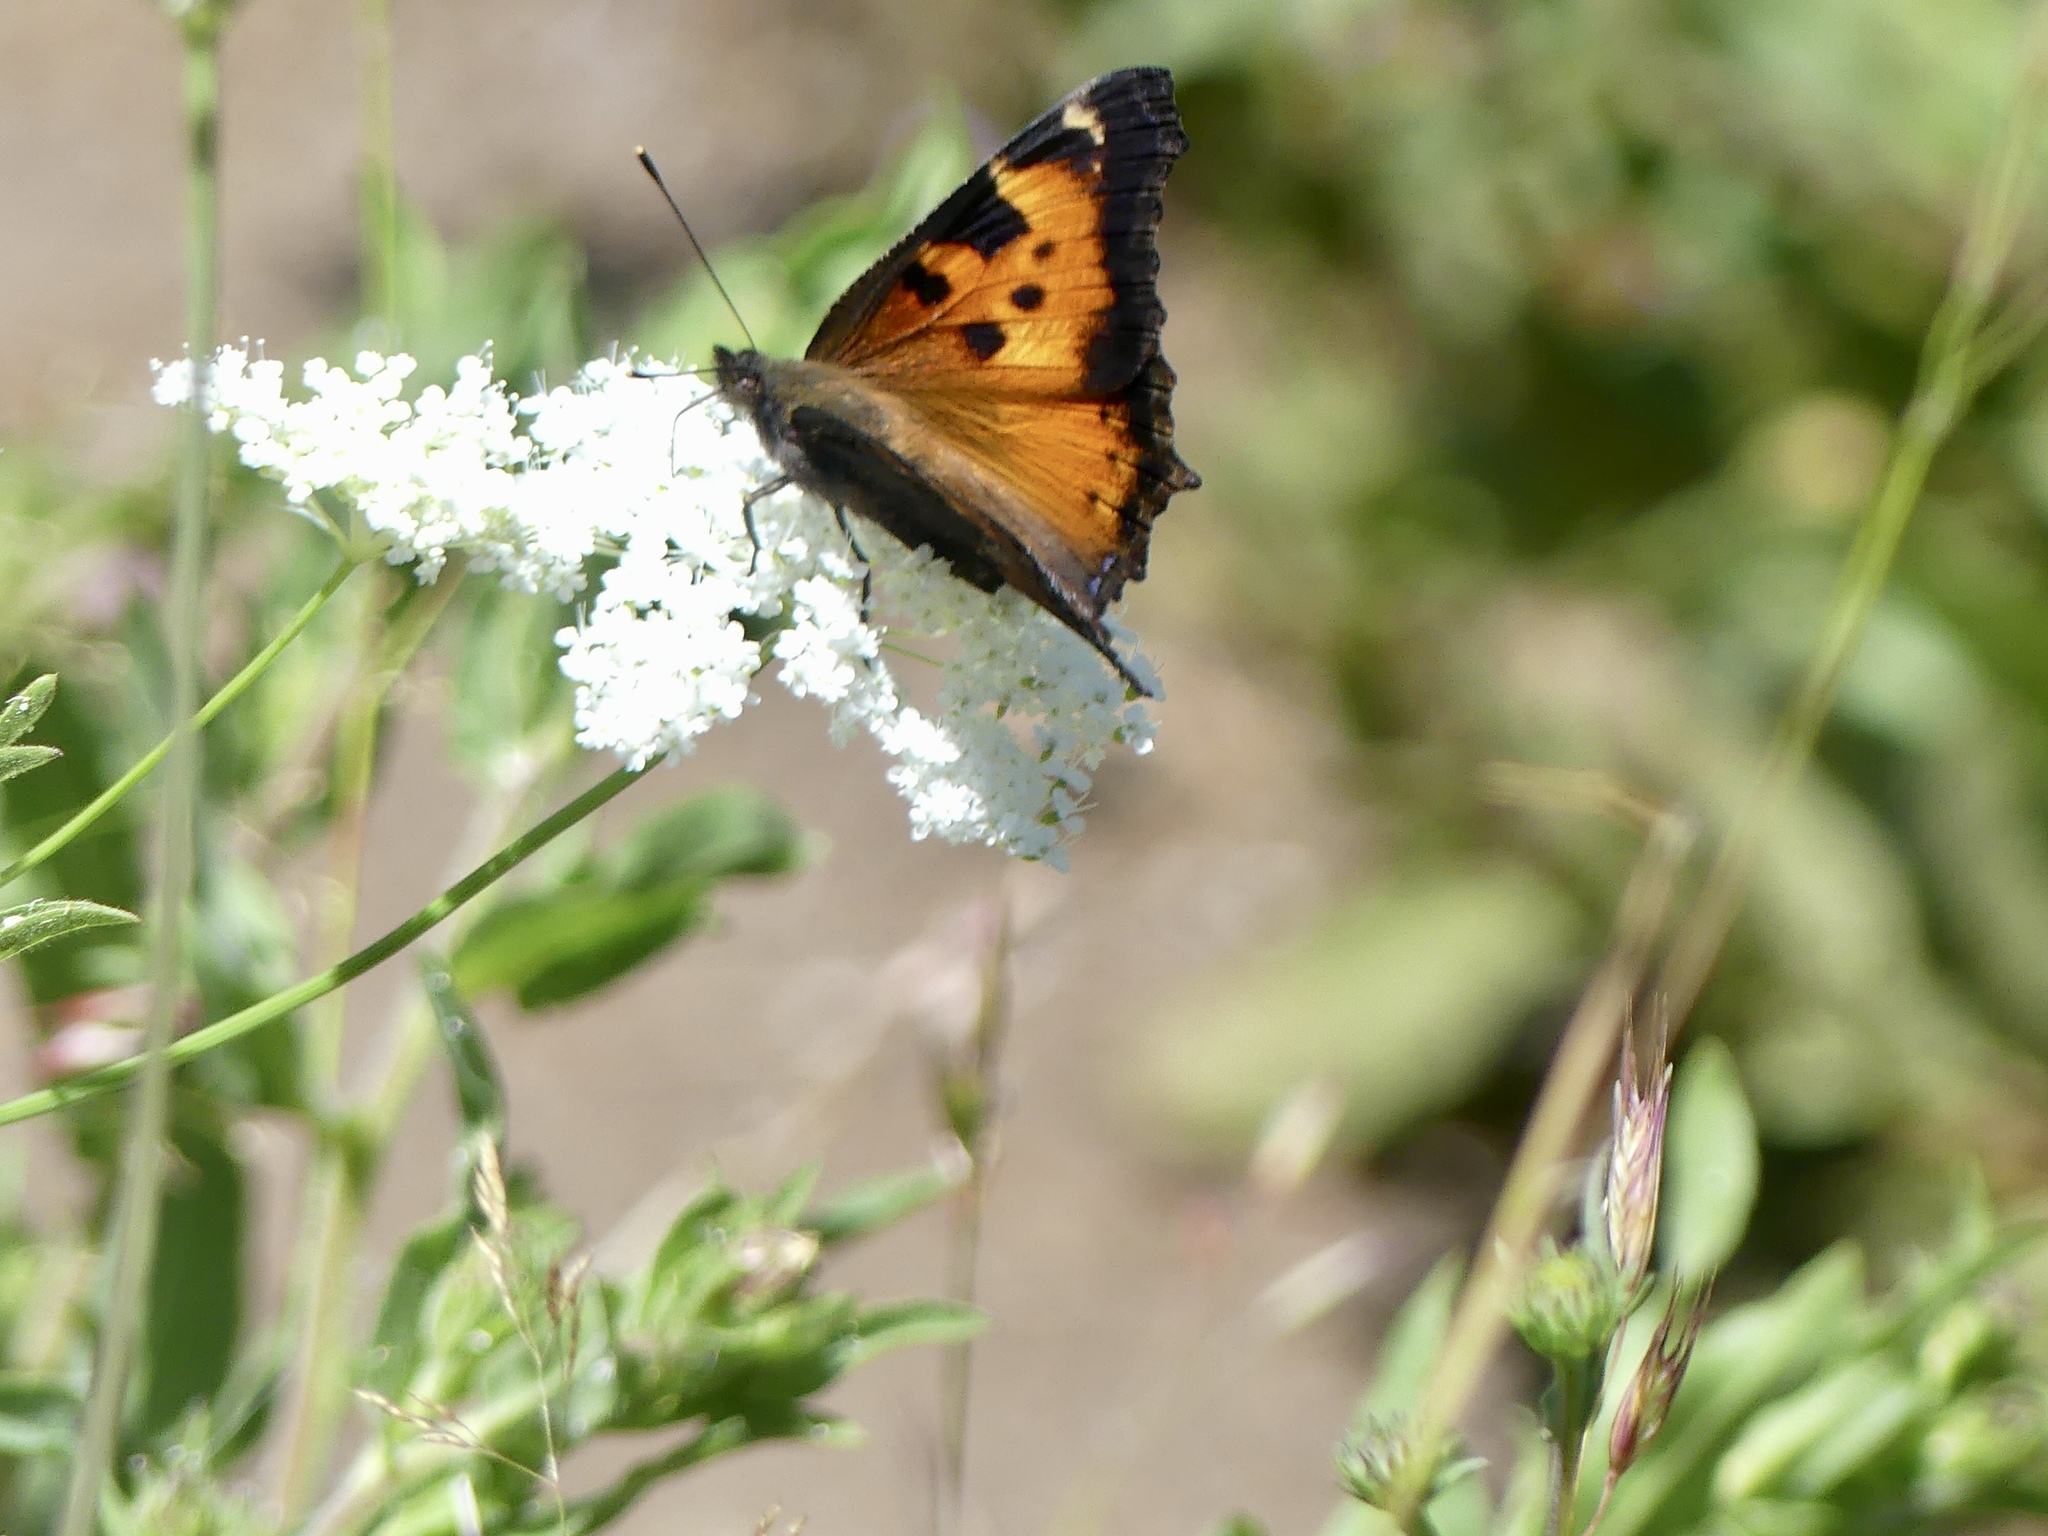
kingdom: Animalia
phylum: Arthropoda
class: Insecta
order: Lepidoptera
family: Nymphalidae
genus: Nymphalis
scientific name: Nymphalis californica
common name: California tortoiseshell
